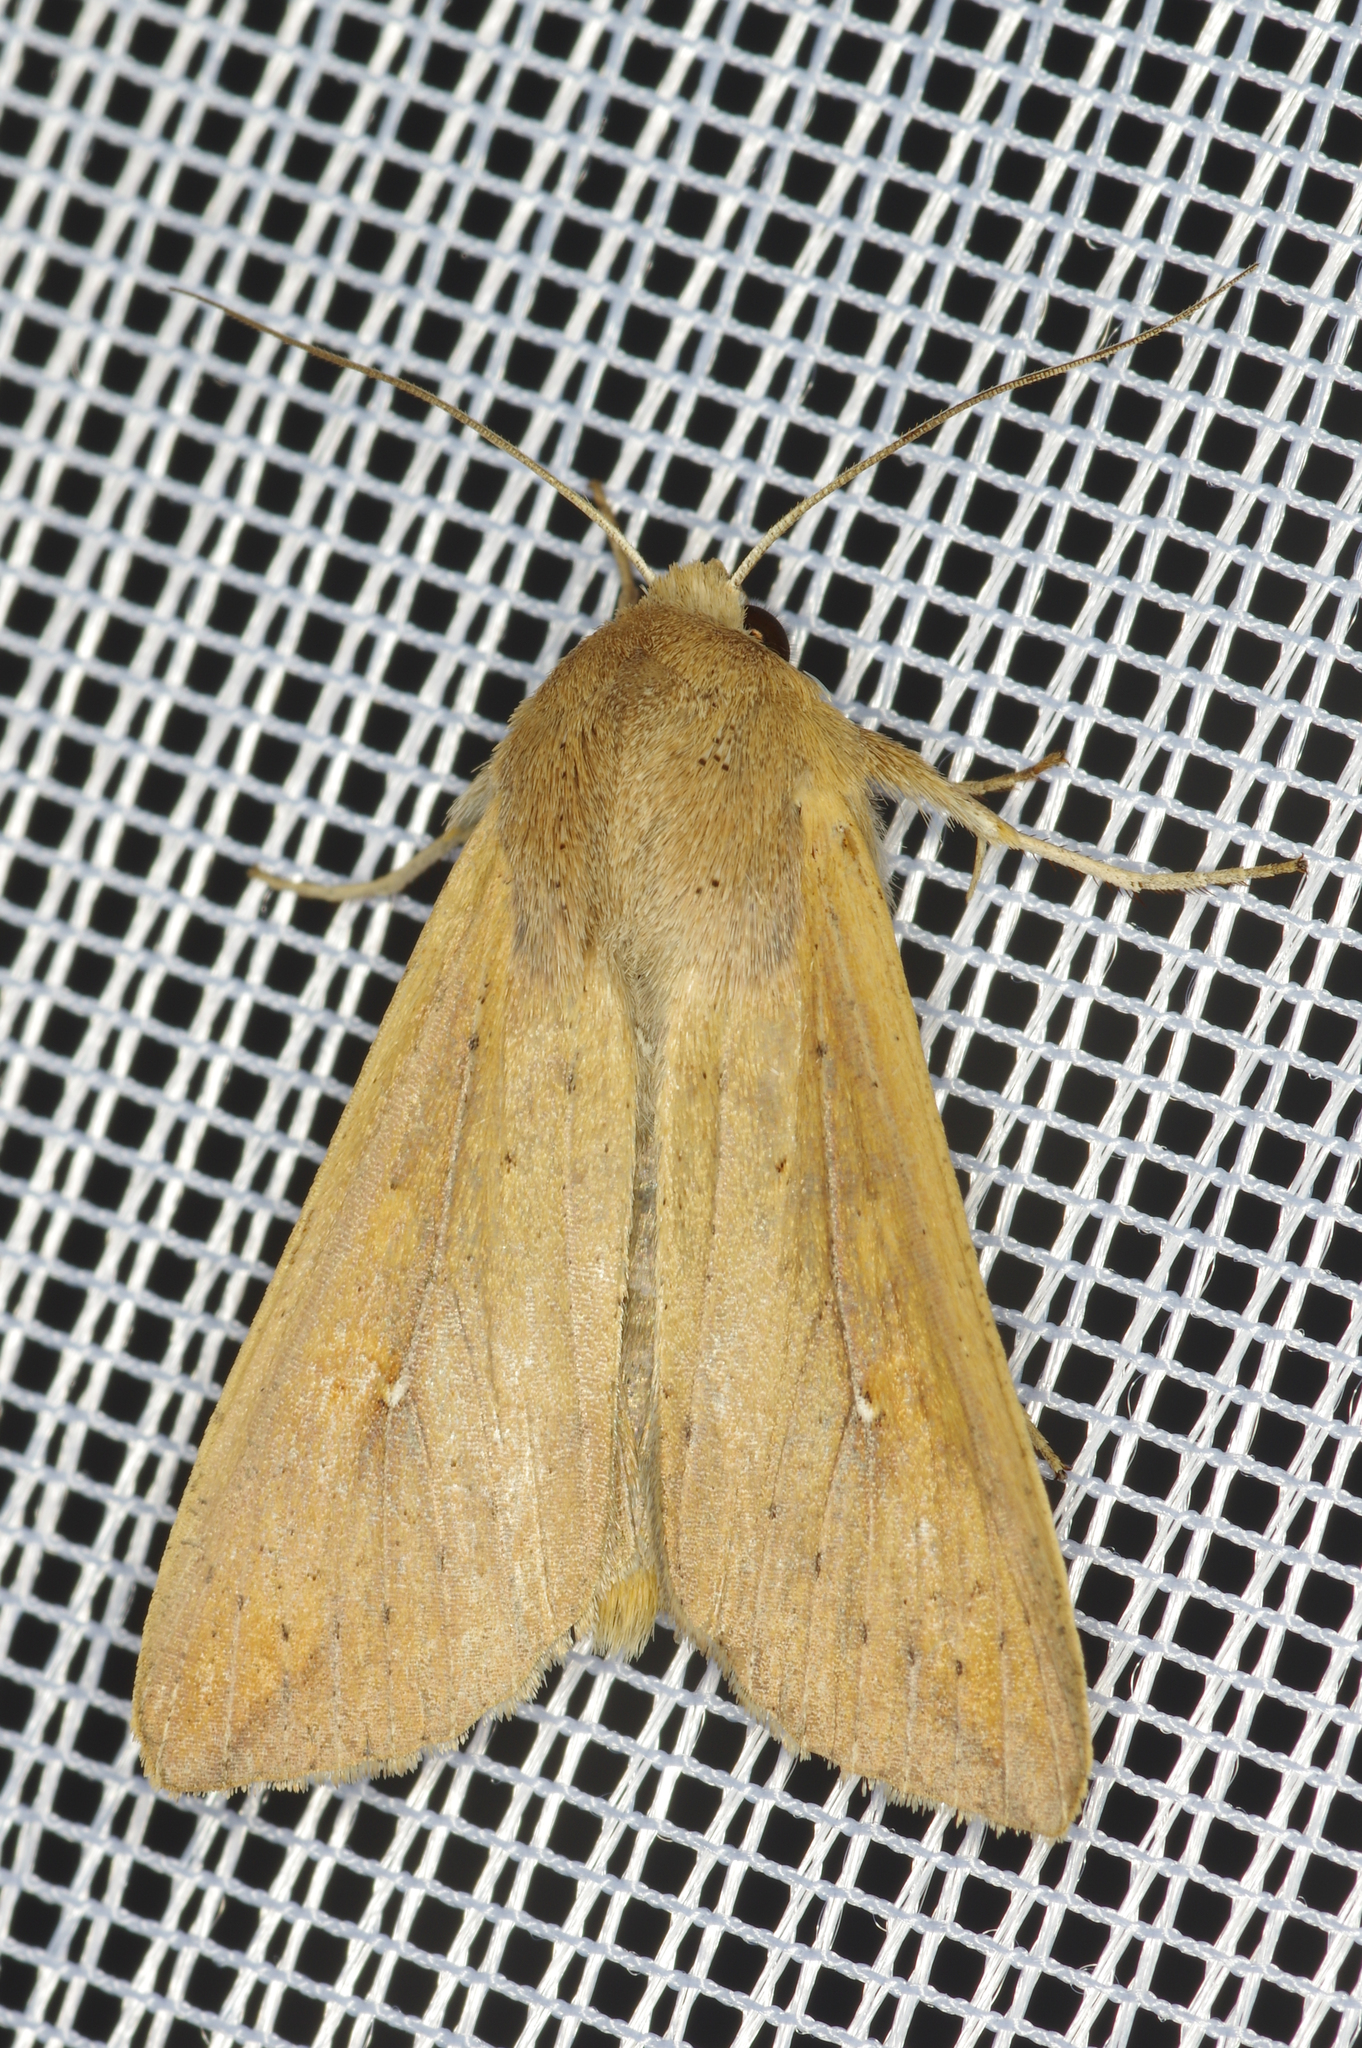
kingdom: Animalia
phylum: Arthropoda
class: Insecta
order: Lepidoptera
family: Noctuidae
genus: Mythimna
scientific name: Mythimna unipuncta
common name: White-speck
